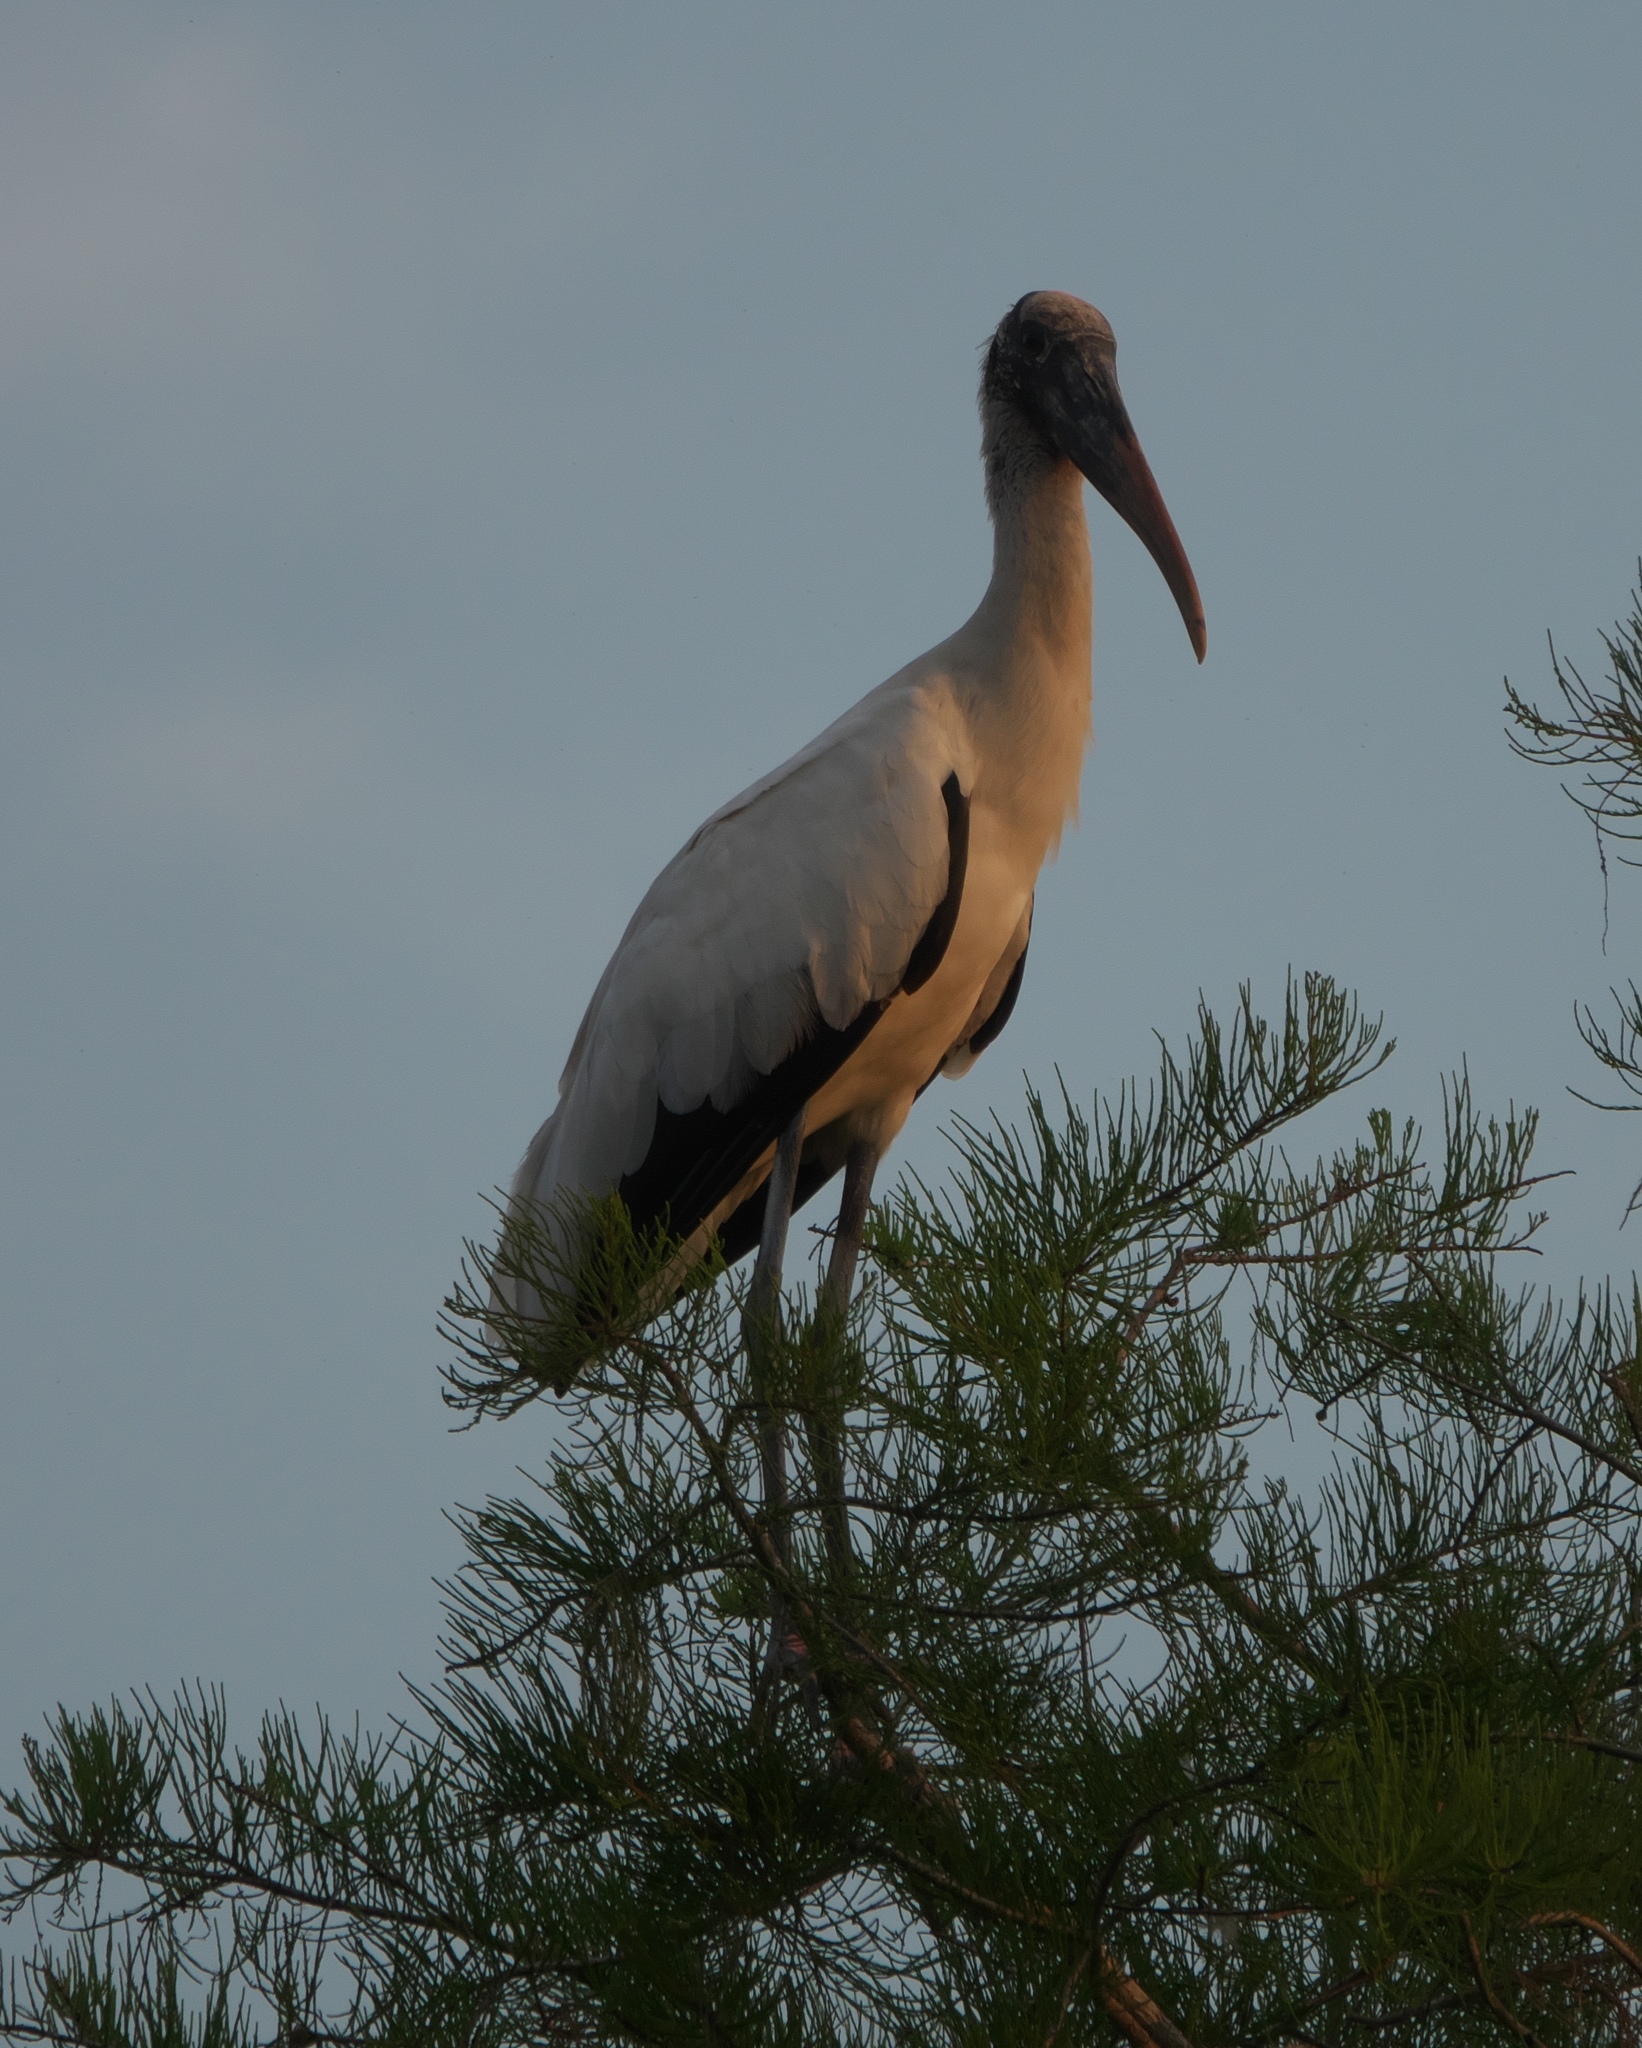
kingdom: Animalia
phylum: Chordata
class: Aves
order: Ciconiiformes
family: Ciconiidae
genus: Mycteria
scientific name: Mycteria americana
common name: Wood stork
